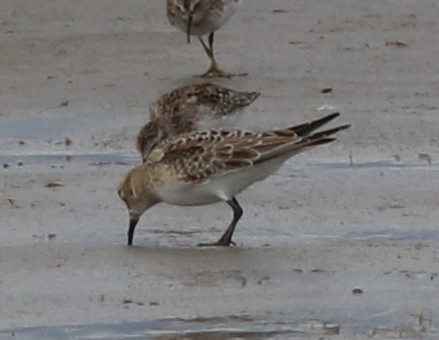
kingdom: Animalia
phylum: Chordata
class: Aves
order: Charadriiformes
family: Scolopacidae
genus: Calidris
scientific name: Calidris bairdii
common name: Baird's sandpiper
